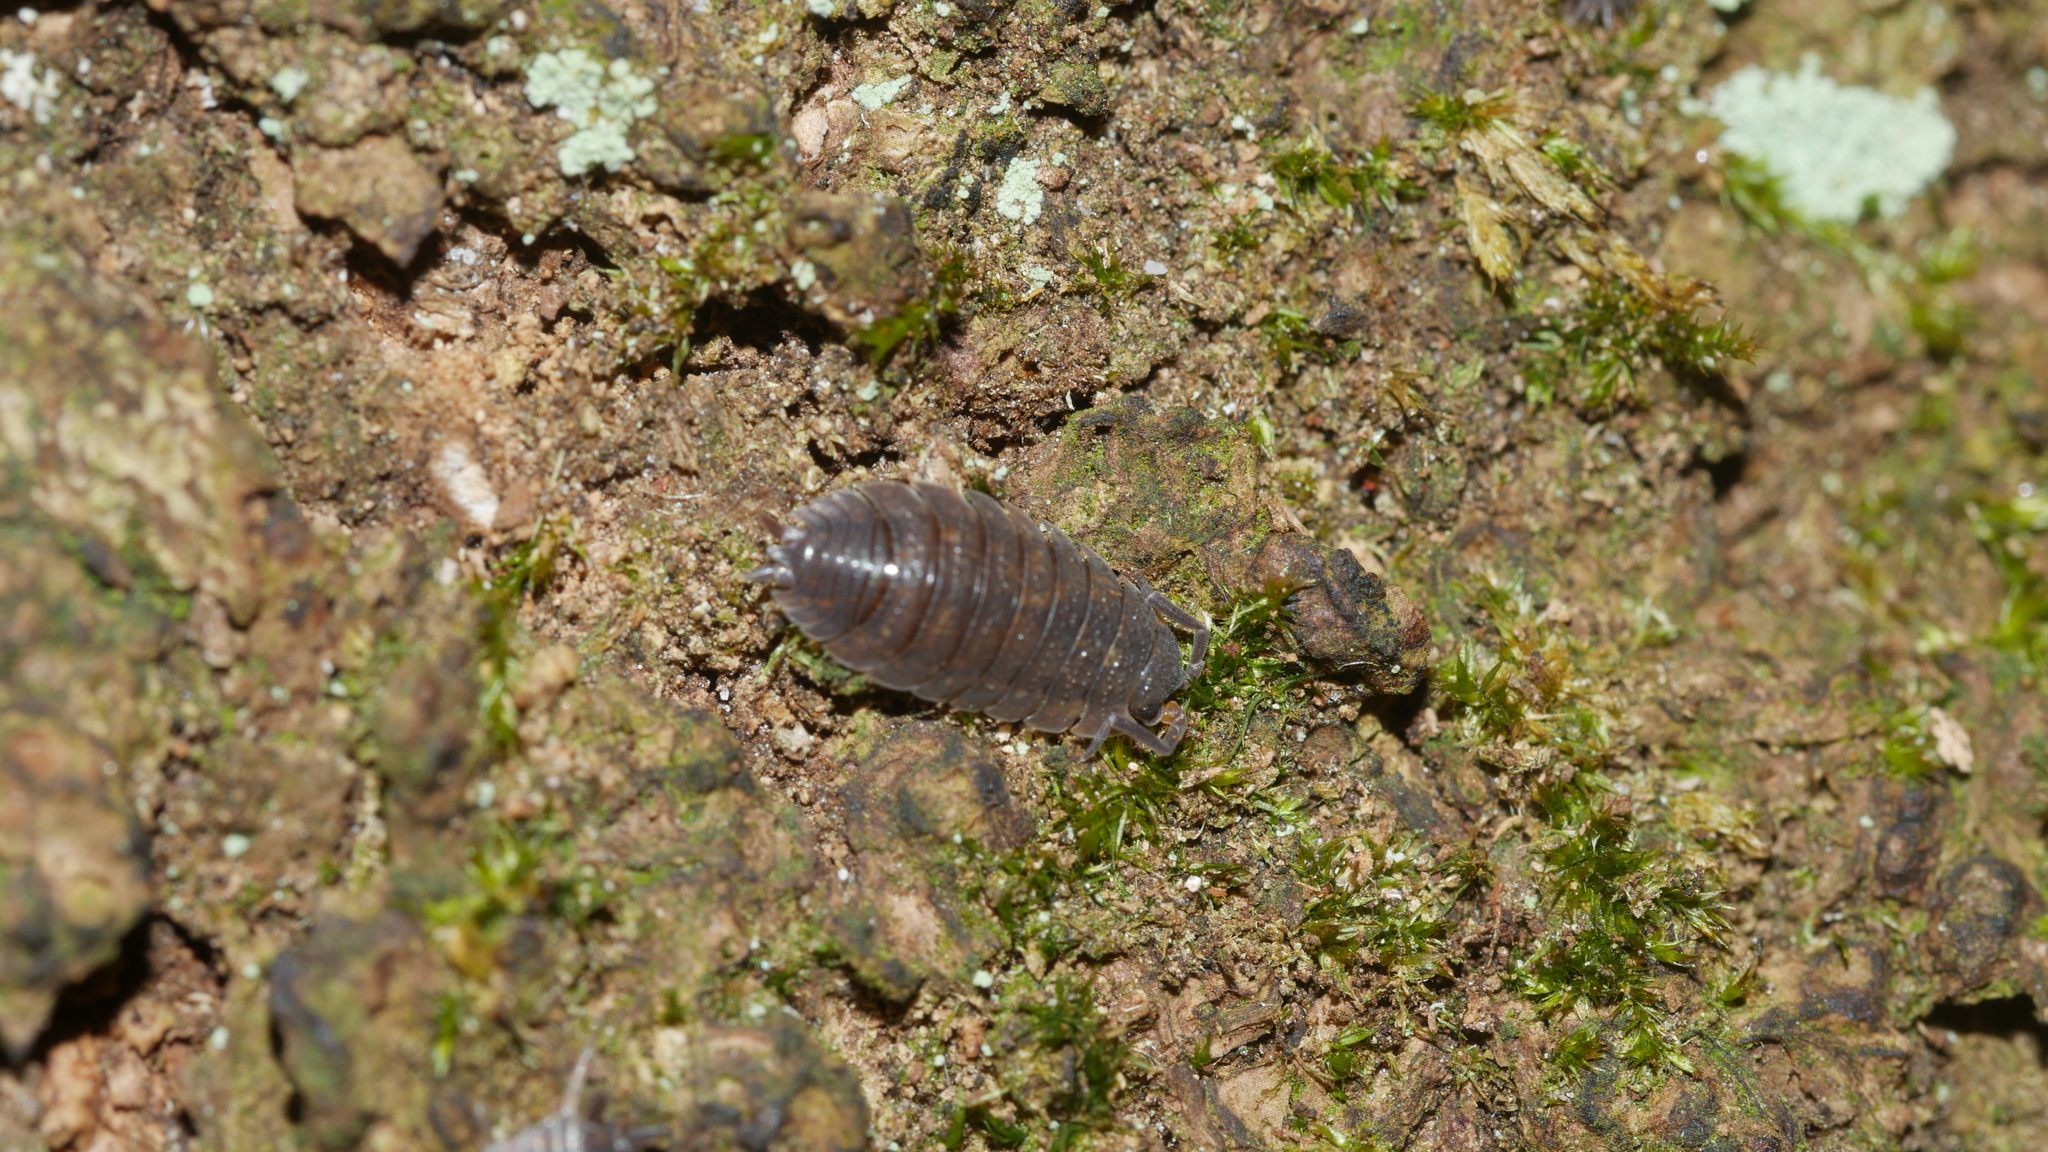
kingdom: Animalia
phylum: Arthropoda
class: Malacostraca
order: Isopoda
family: Porcellionidae
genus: Porcellio
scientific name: Porcellio scaber
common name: Common rough woodlouse
